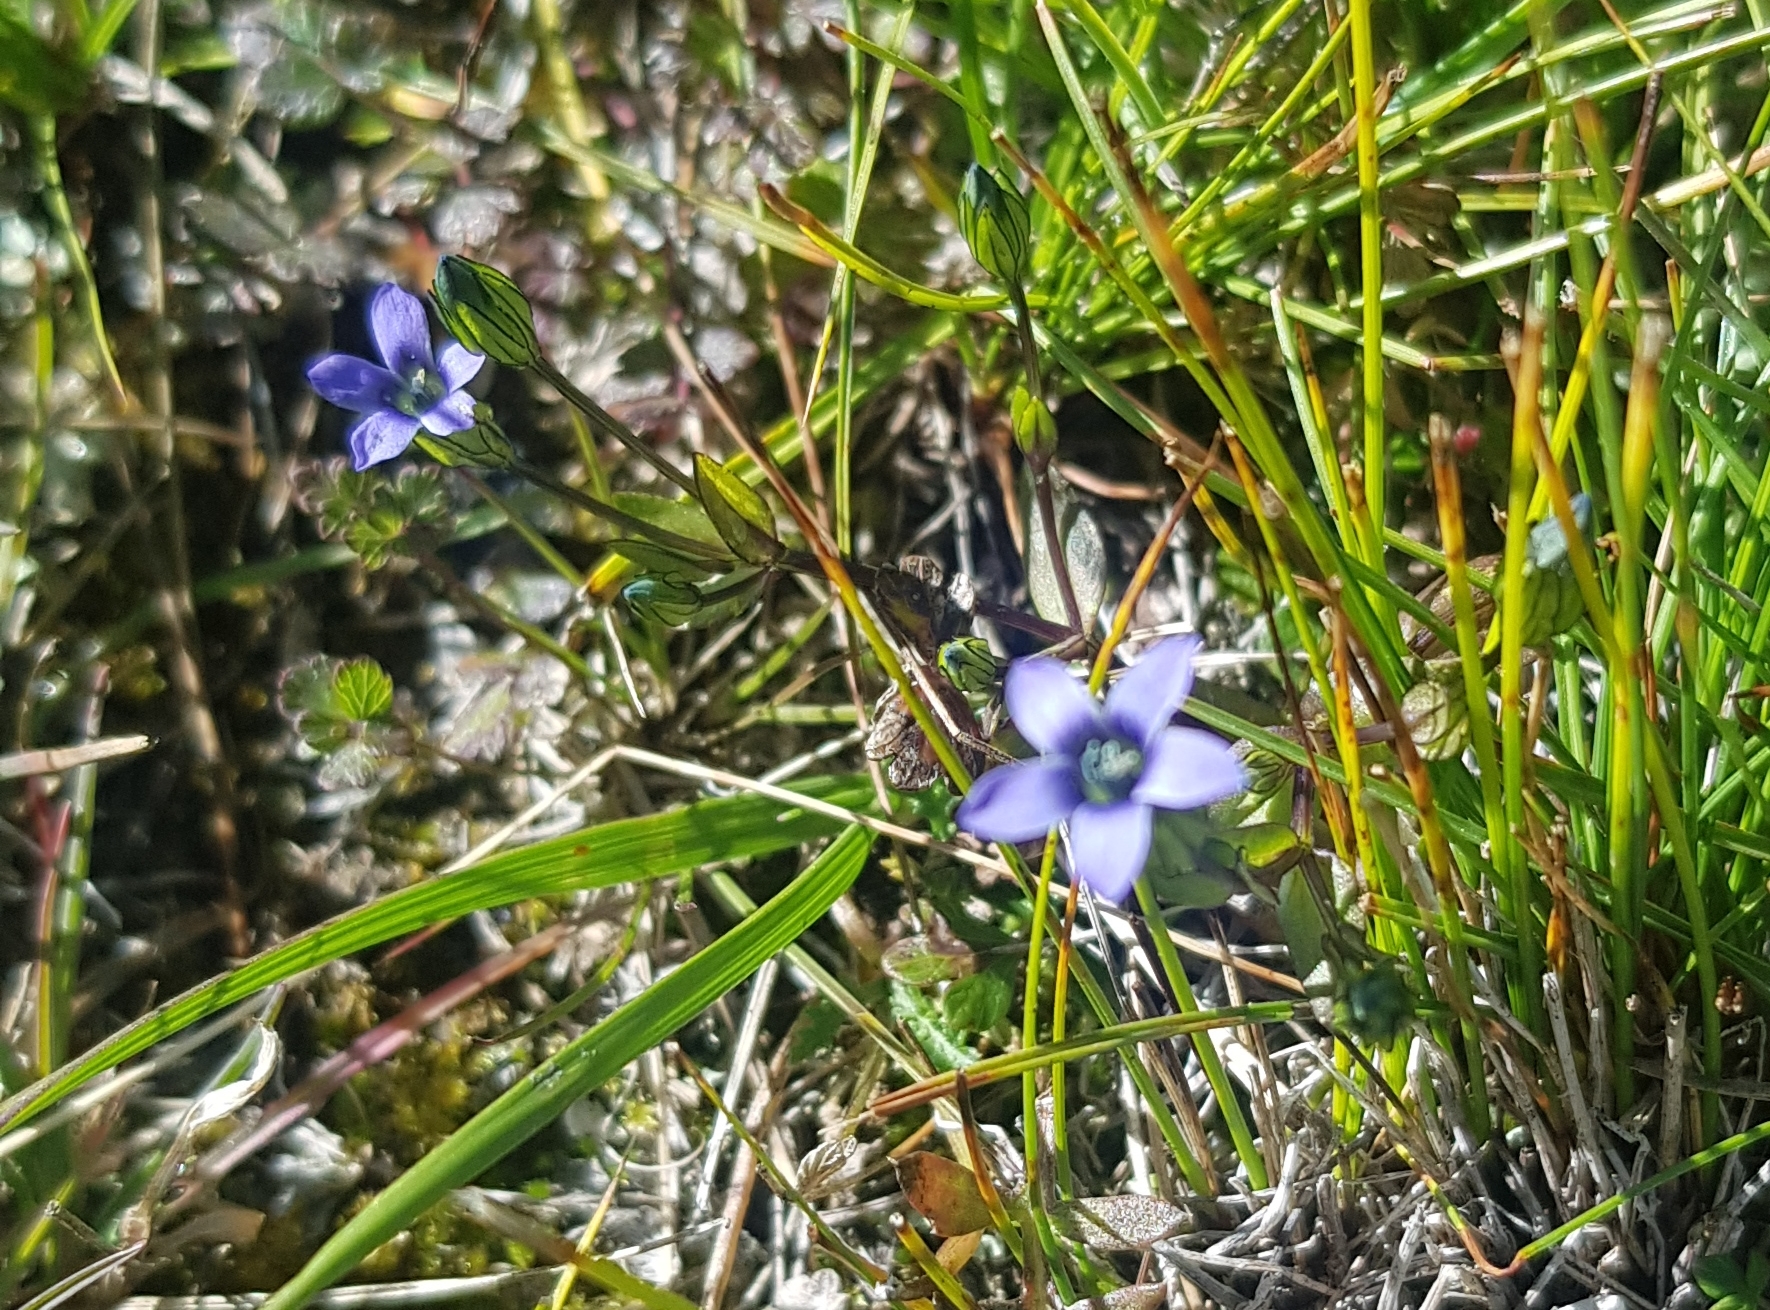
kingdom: Plantae
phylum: Tracheophyta
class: Magnoliopsida
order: Gentianales
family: Gentianaceae
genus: Comastoma
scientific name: Comastoma tenellum
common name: Dane's dwarf gentian
